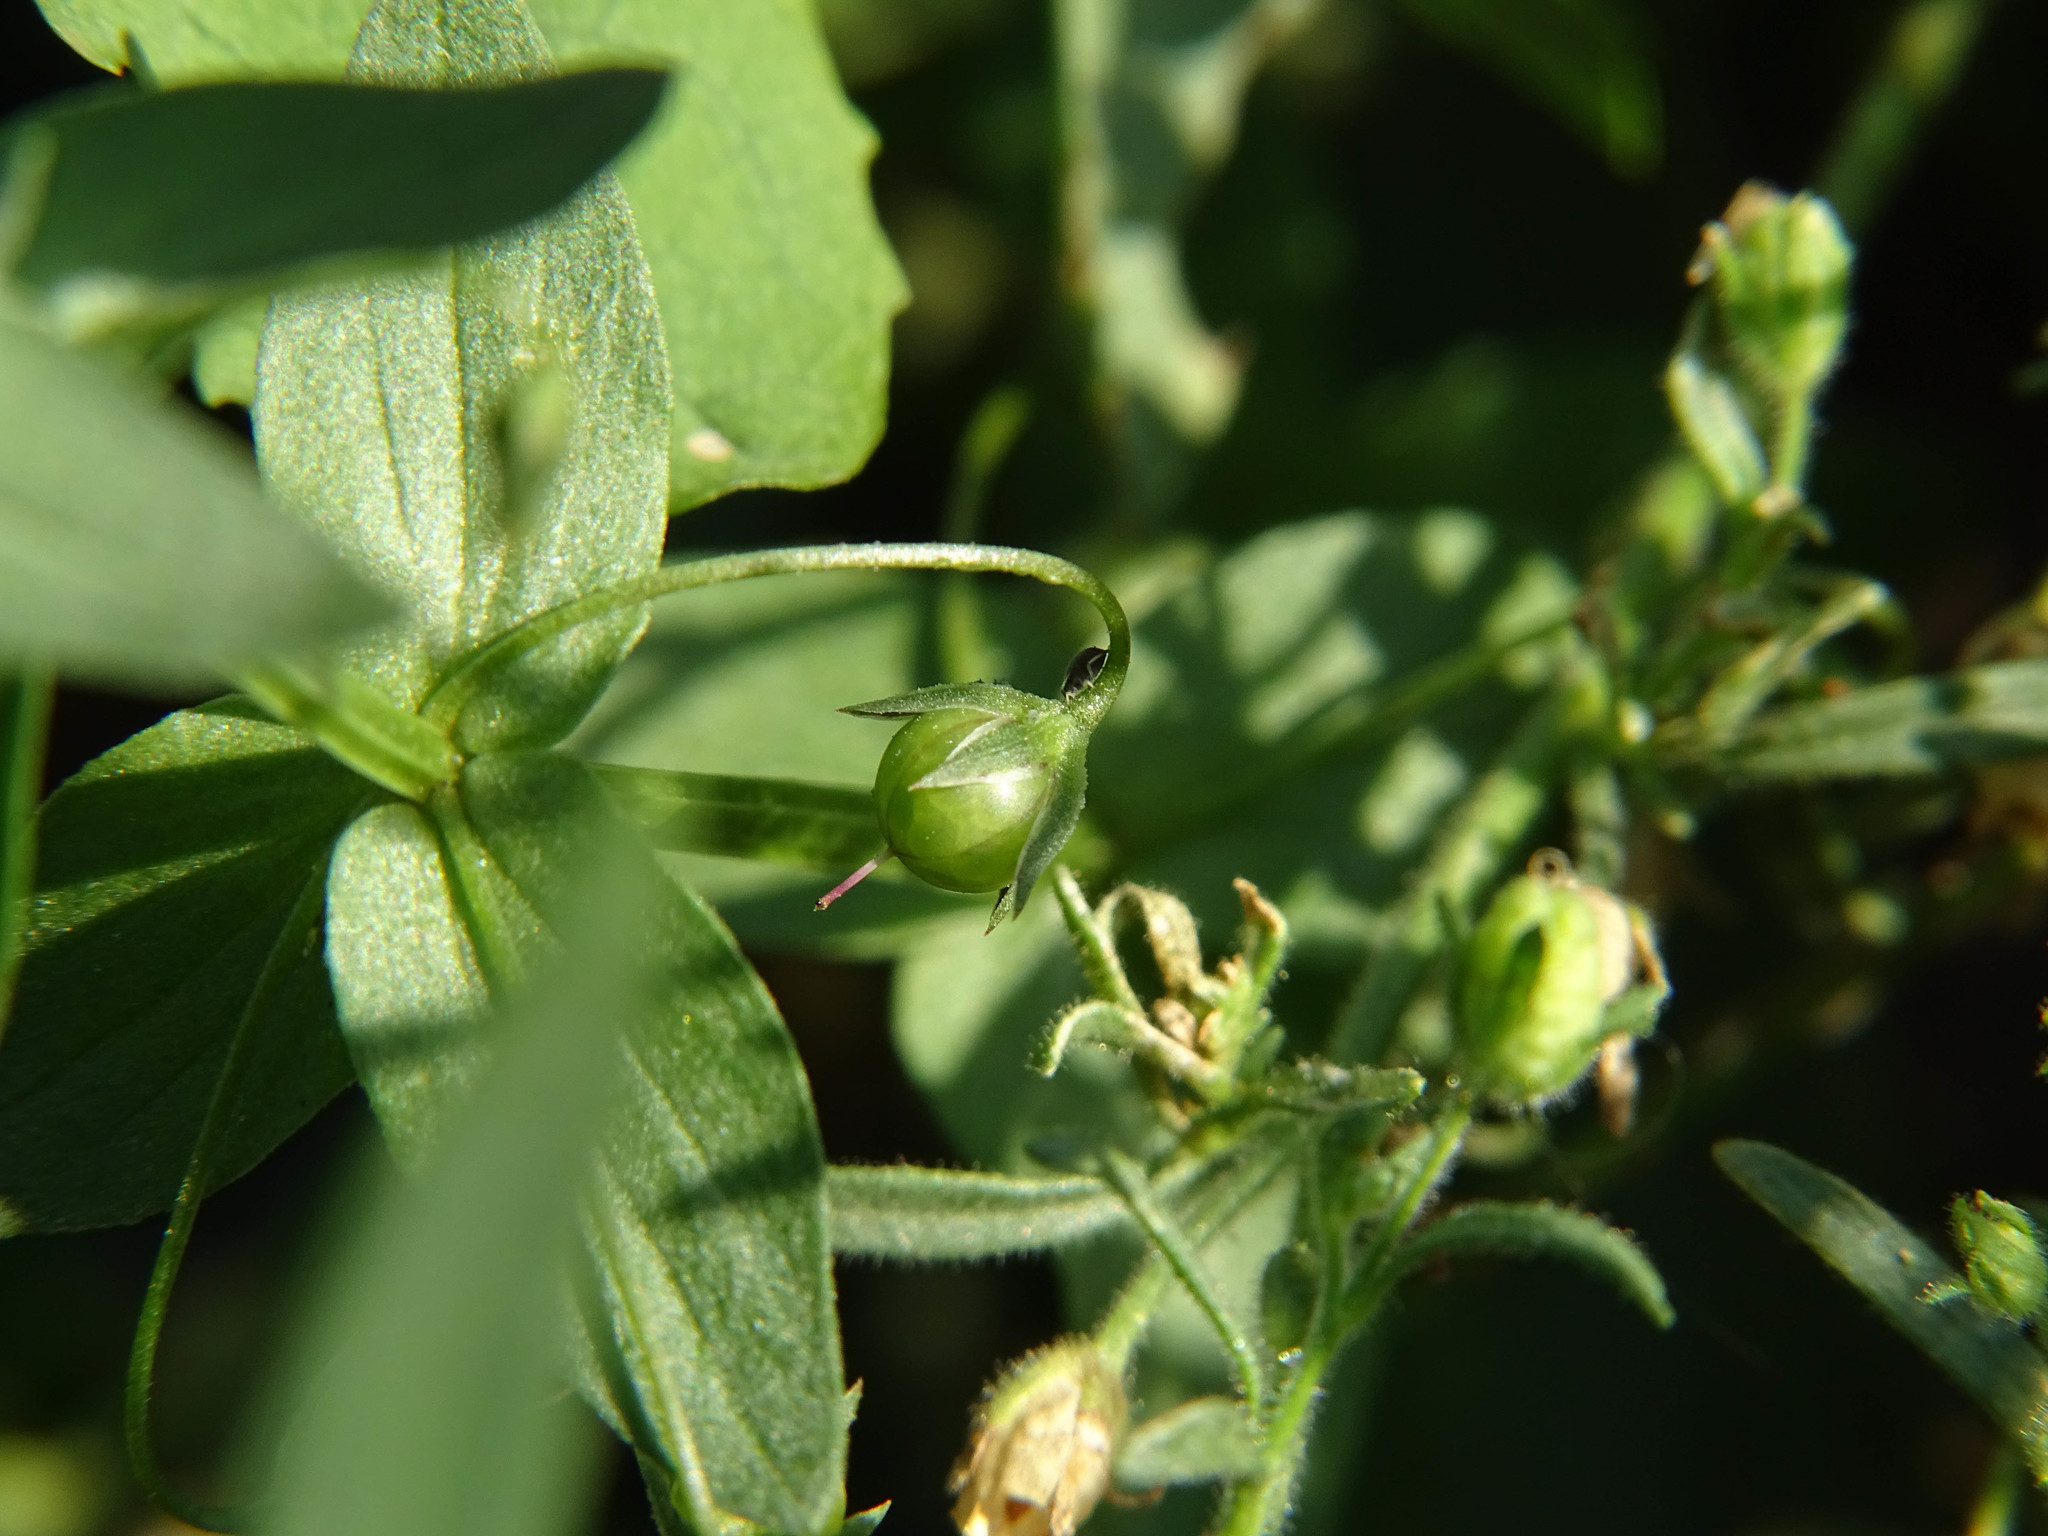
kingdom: Plantae
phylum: Tracheophyta
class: Magnoliopsida
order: Ericales
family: Primulaceae
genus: Lysimachia
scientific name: Lysimachia arvensis
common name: Scarlet pimpernel
